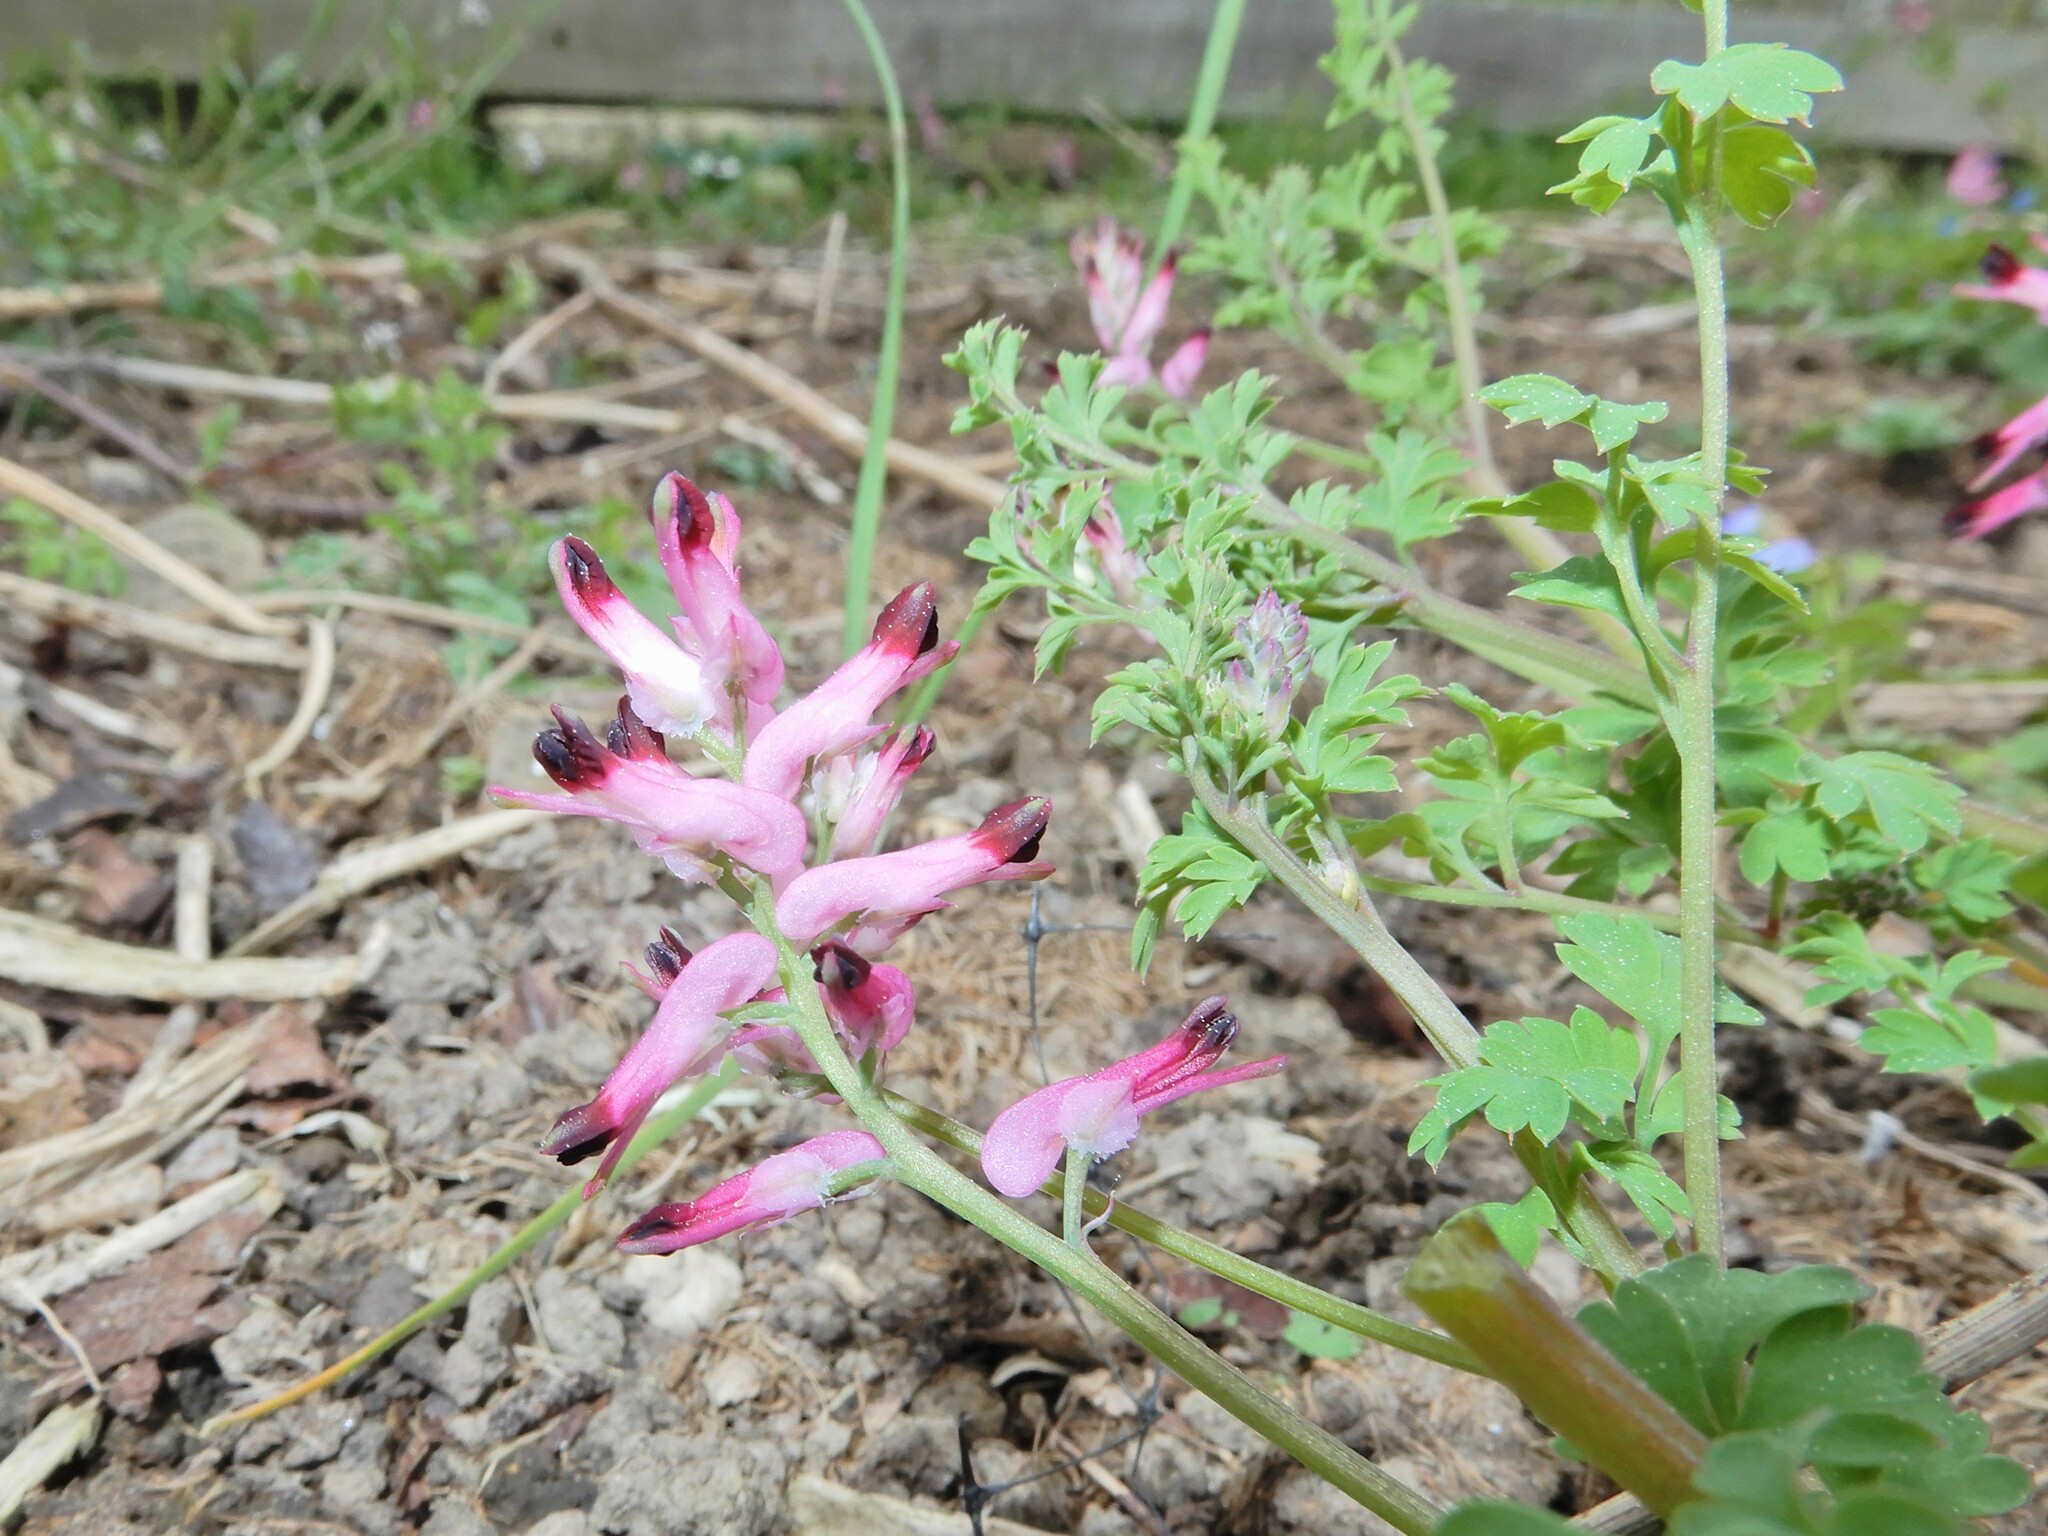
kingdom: Plantae
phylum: Tracheophyta
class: Magnoliopsida
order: Ranunculales
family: Papaveraceae
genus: Fumaria
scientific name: Fumaria muralis
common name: Common ramping-fumitory
